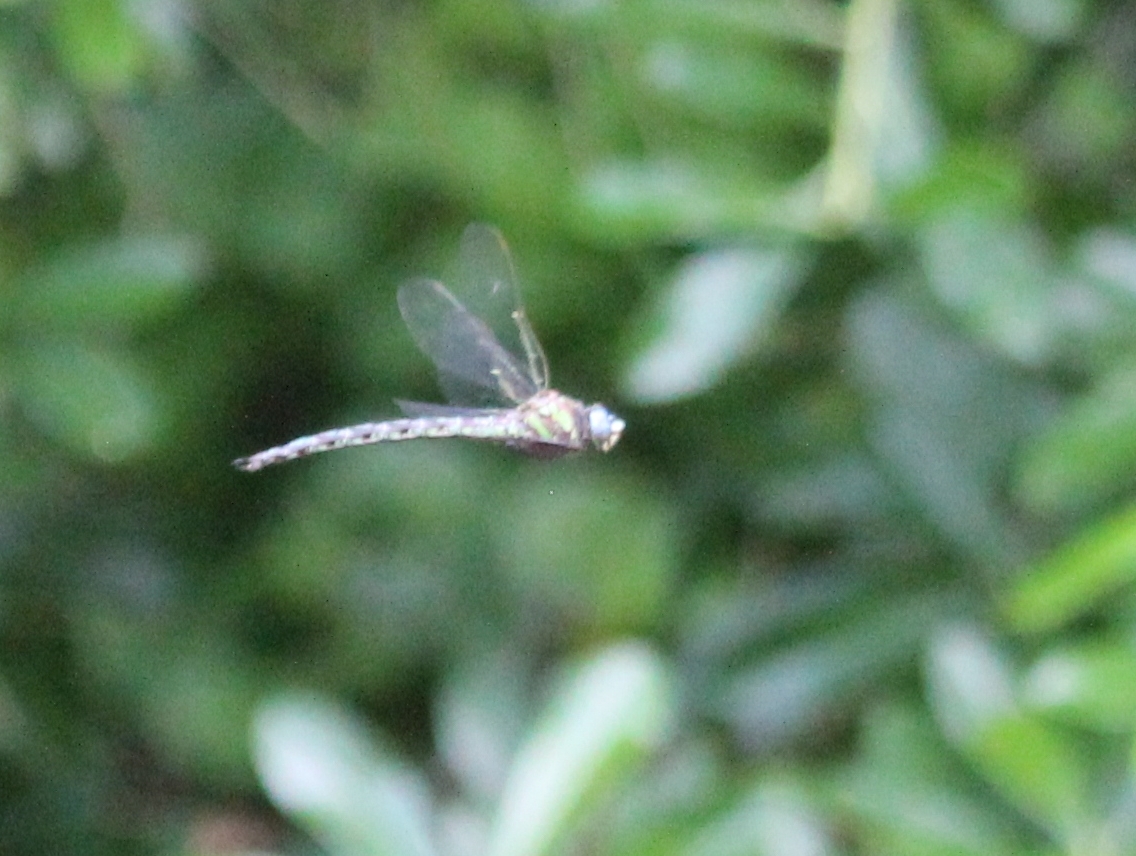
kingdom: Animalia
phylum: Arthropoda
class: Insecta
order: Odonata
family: Aeshnidae
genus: Nasiaeschna
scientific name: Nasiaeschna pentacantha
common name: Cyrano darner
